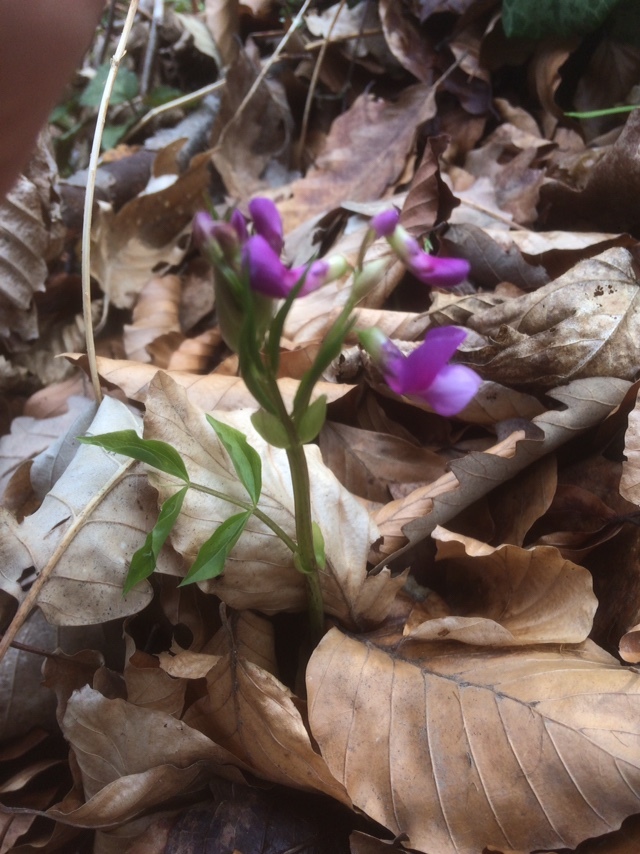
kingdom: Plantae
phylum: Tracheophyta
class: Magnoliopsida
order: Fabales
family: Fabaceae
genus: Lathyrus
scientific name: Lathyrus vernus
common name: Spring pea
